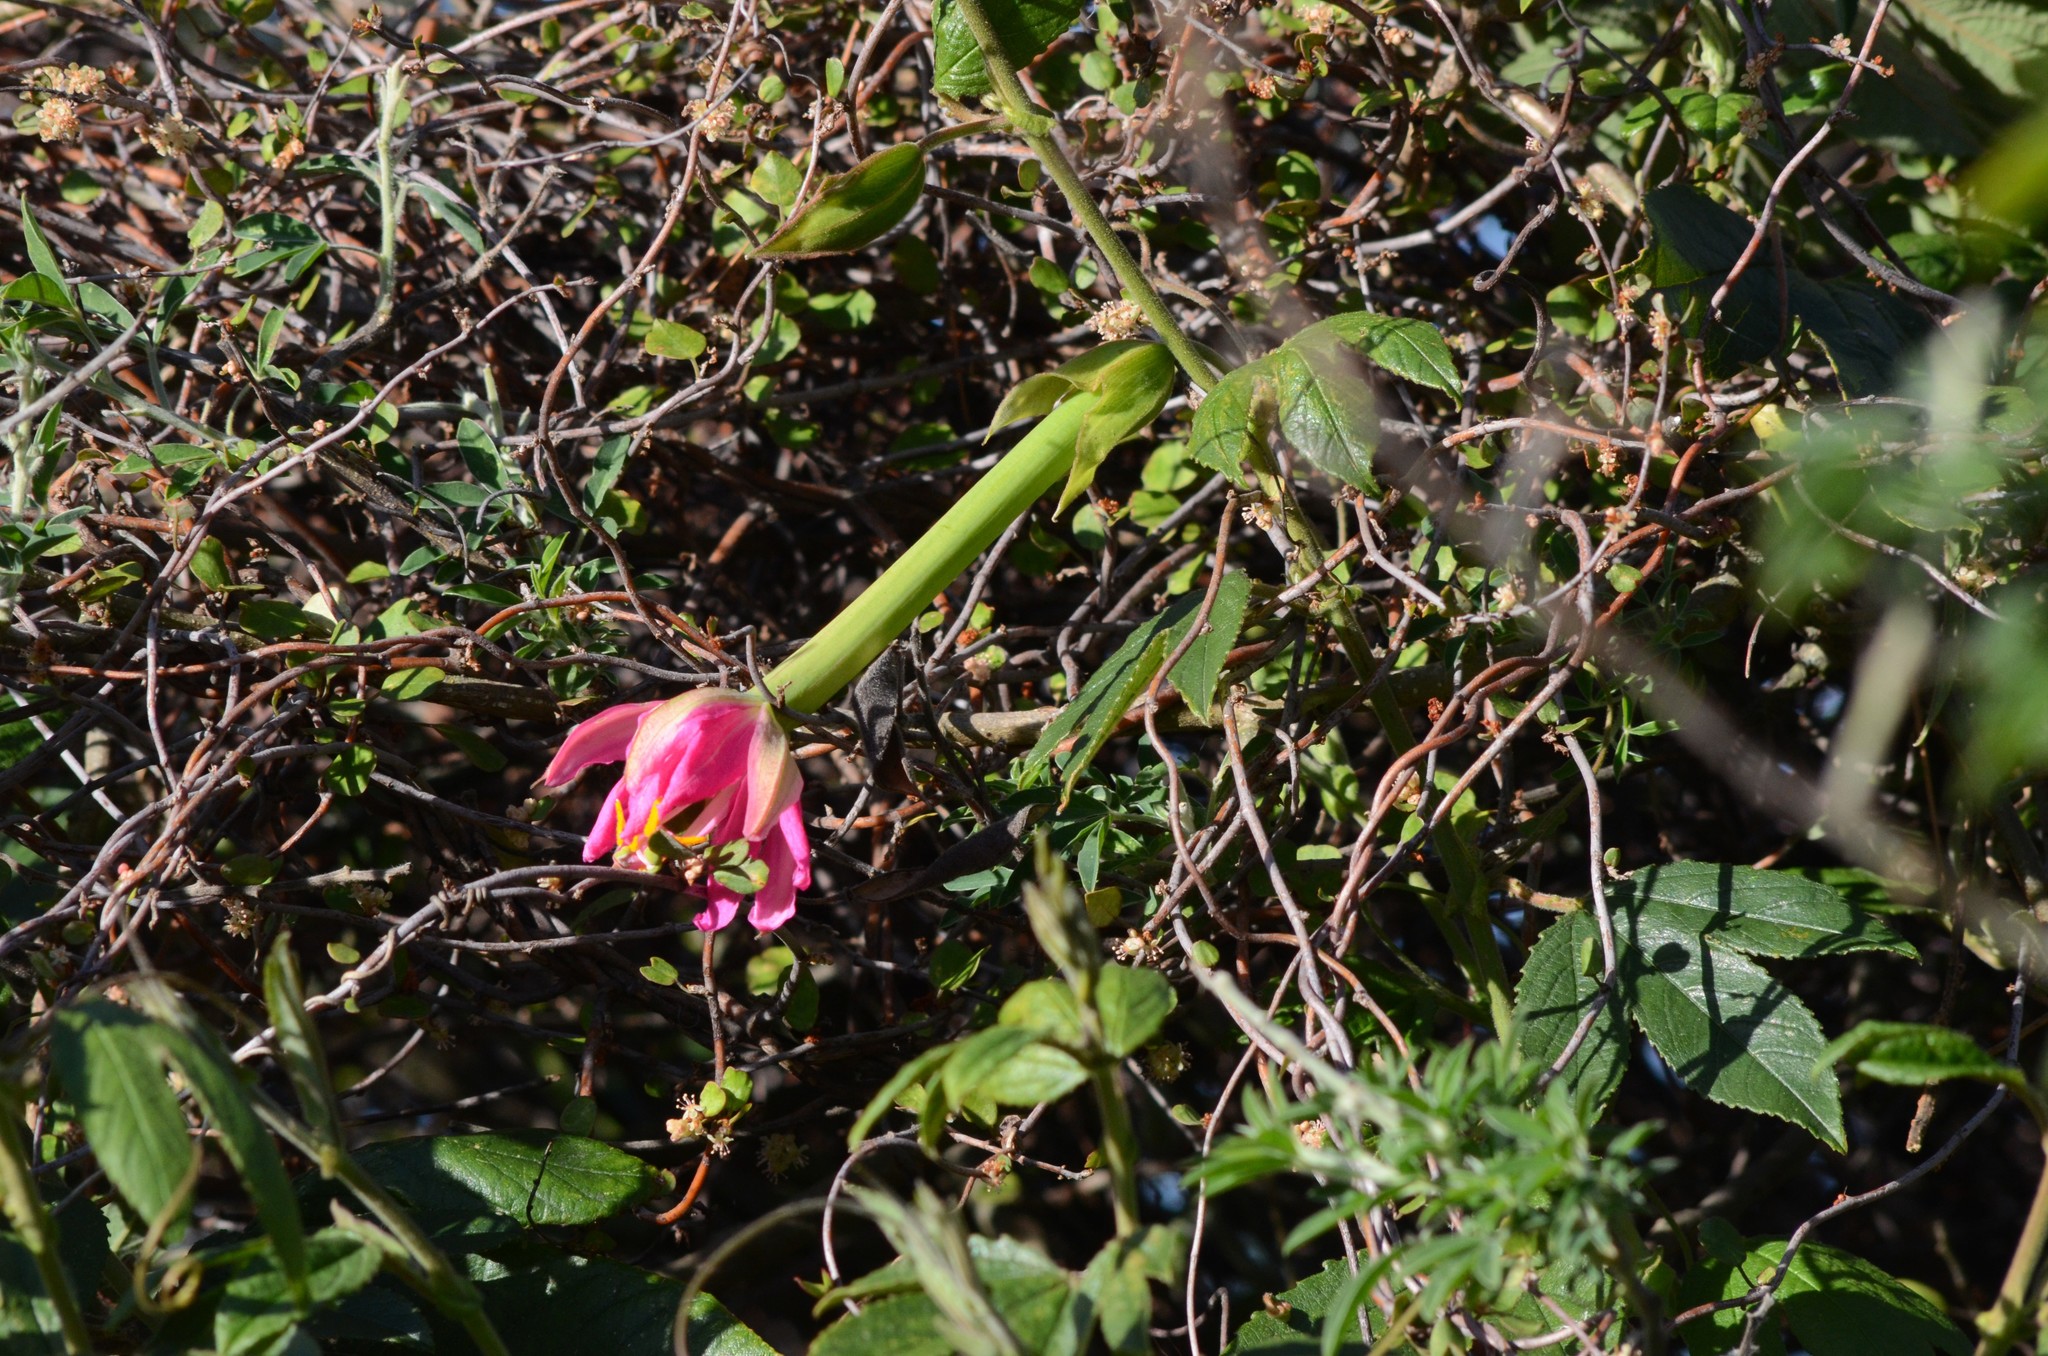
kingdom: Plantae
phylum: Tracheophyta
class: Magnoliopsida
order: Malpighiales
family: Passifloraceae
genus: Passiflora
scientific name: Passiflora tripartita
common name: Banana poka
